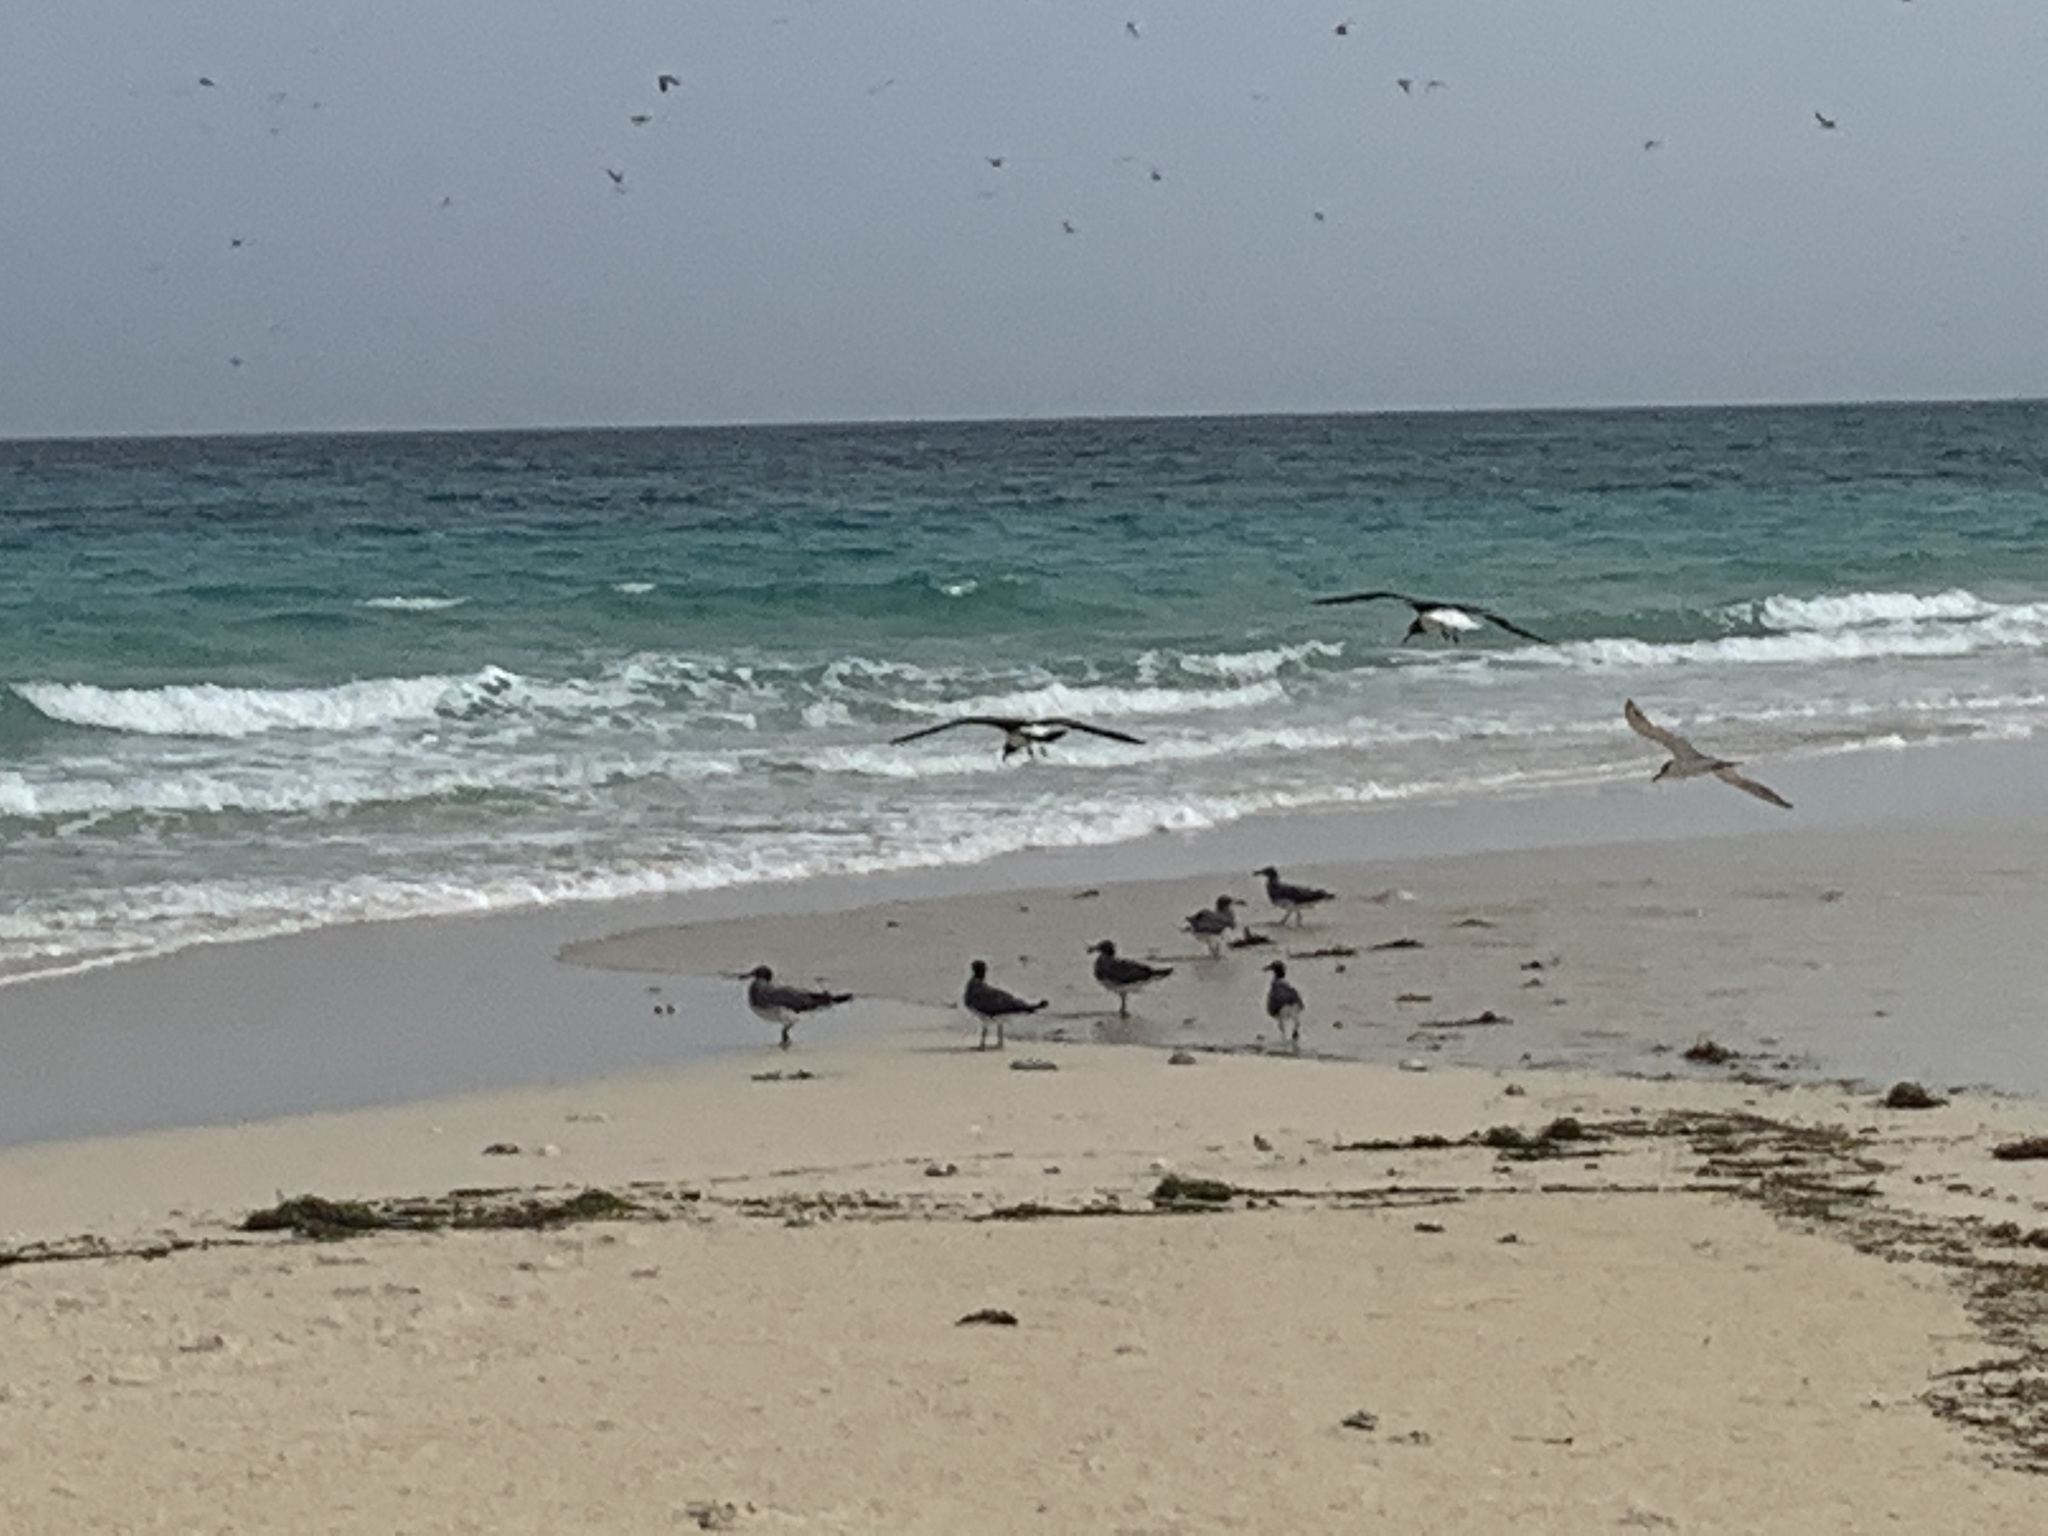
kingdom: Animalia
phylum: Chordata
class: Aves
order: Charadriiformes
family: Laridae
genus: Ichthyaetus
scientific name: Ichthyaetus hemprichii
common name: Sooty gull
